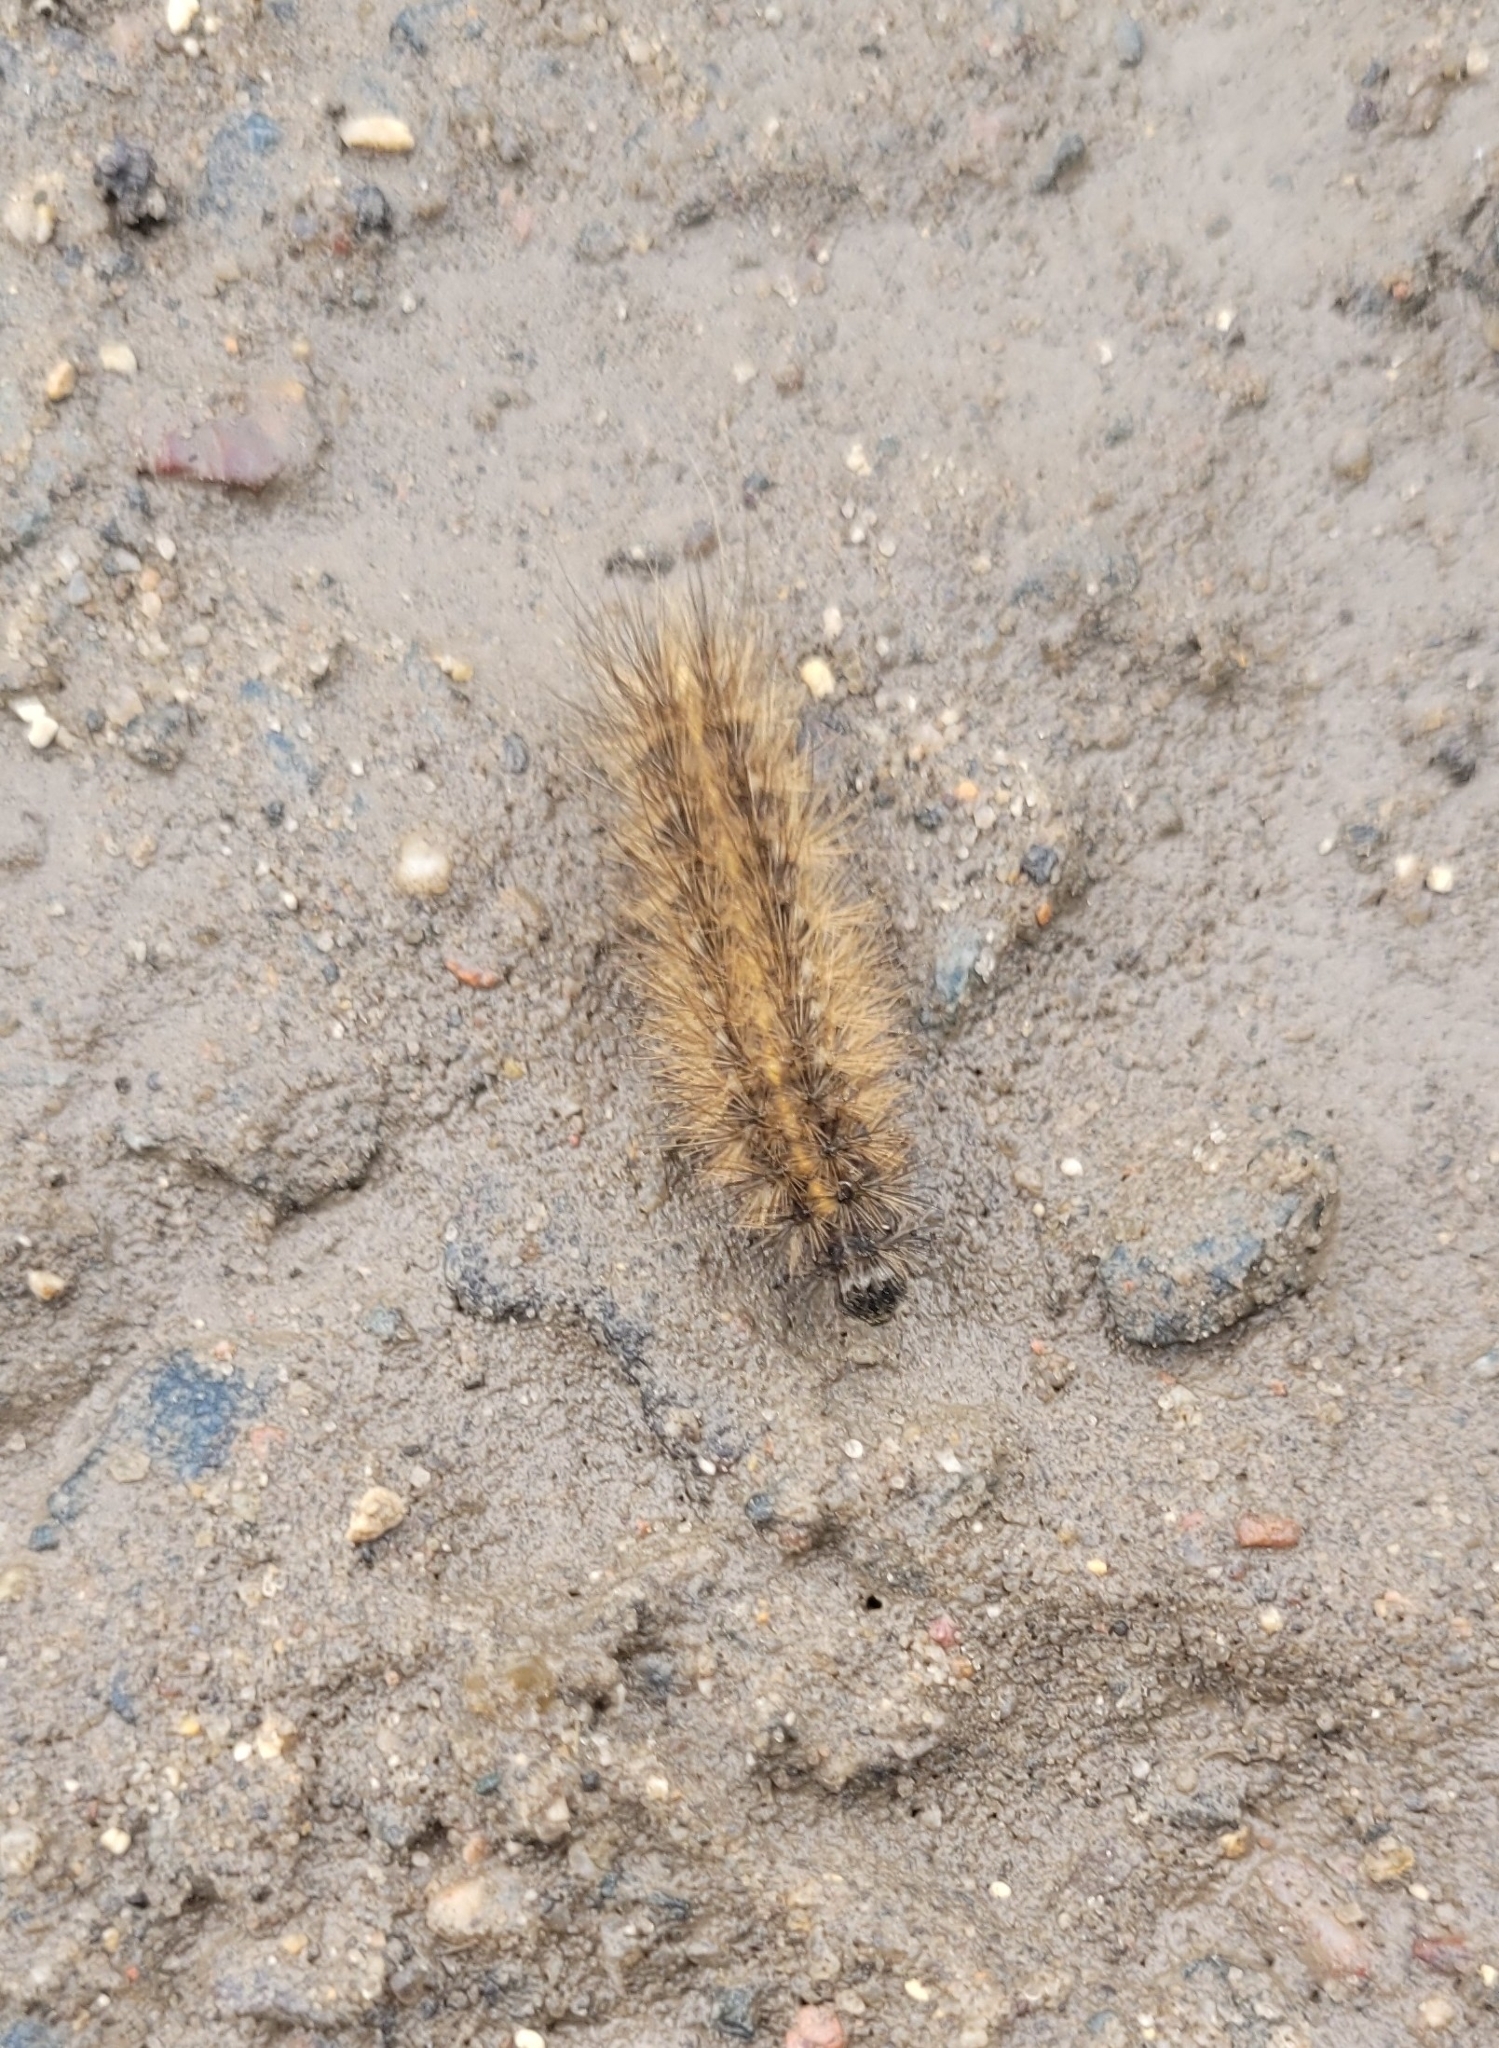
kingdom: Animalia
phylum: Arthropoda
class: Insecta
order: Lepidoptera
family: Erebidae
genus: Phragmatobia
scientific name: Phragmatobia fuliginosa
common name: Ruby tiger
